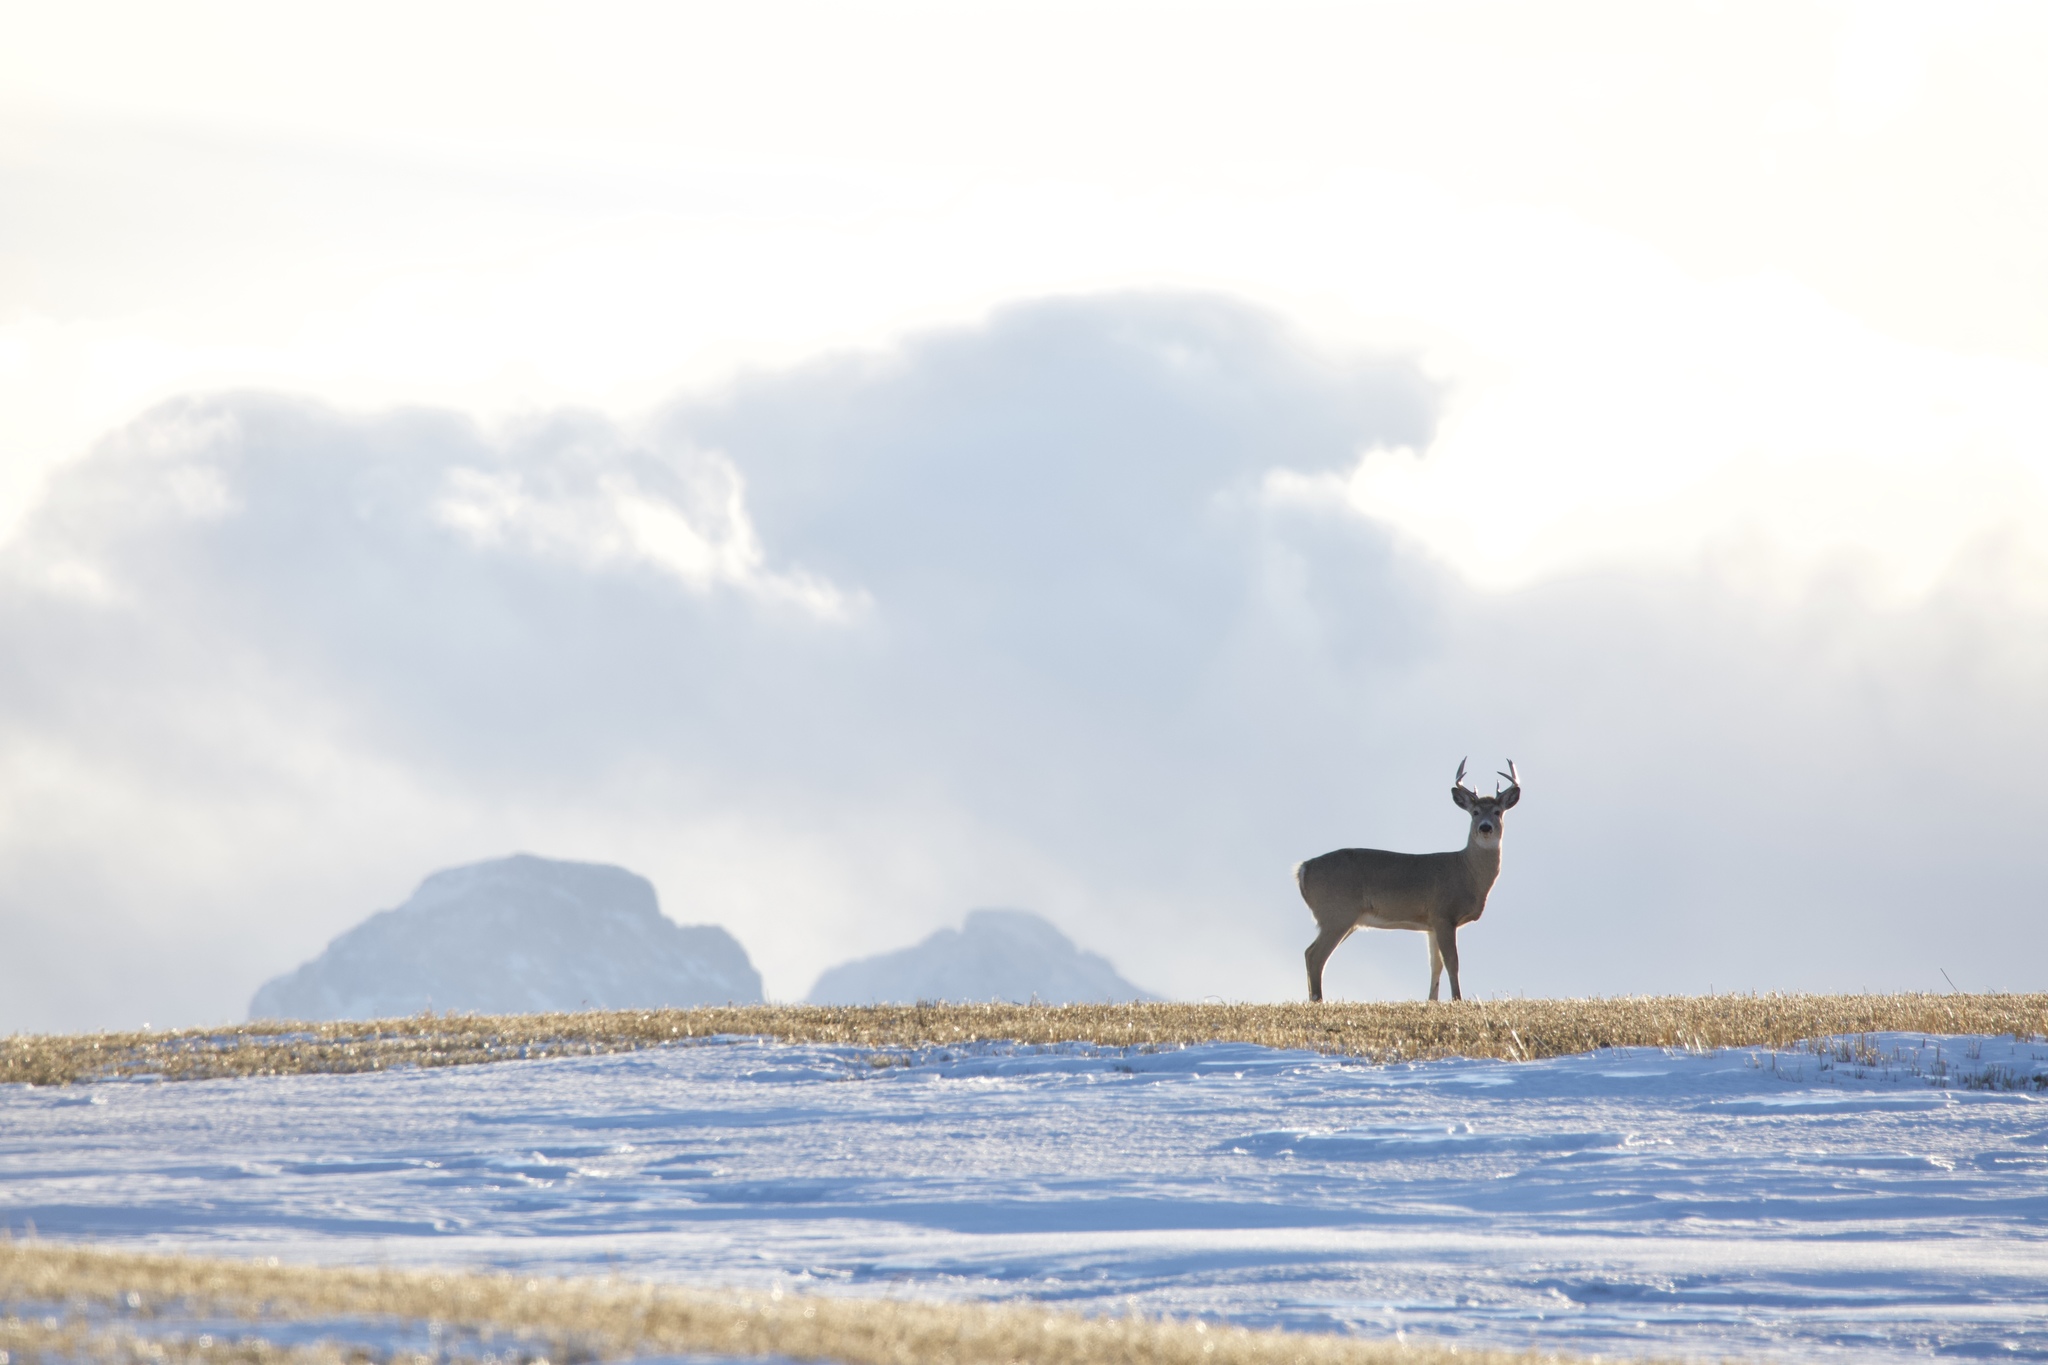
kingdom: Animalia
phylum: Chordata
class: Mammalia
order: Artiodactyla
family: Cervidae
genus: Odocoileus
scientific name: Odocoileus virginianus
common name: White-tailed deer
